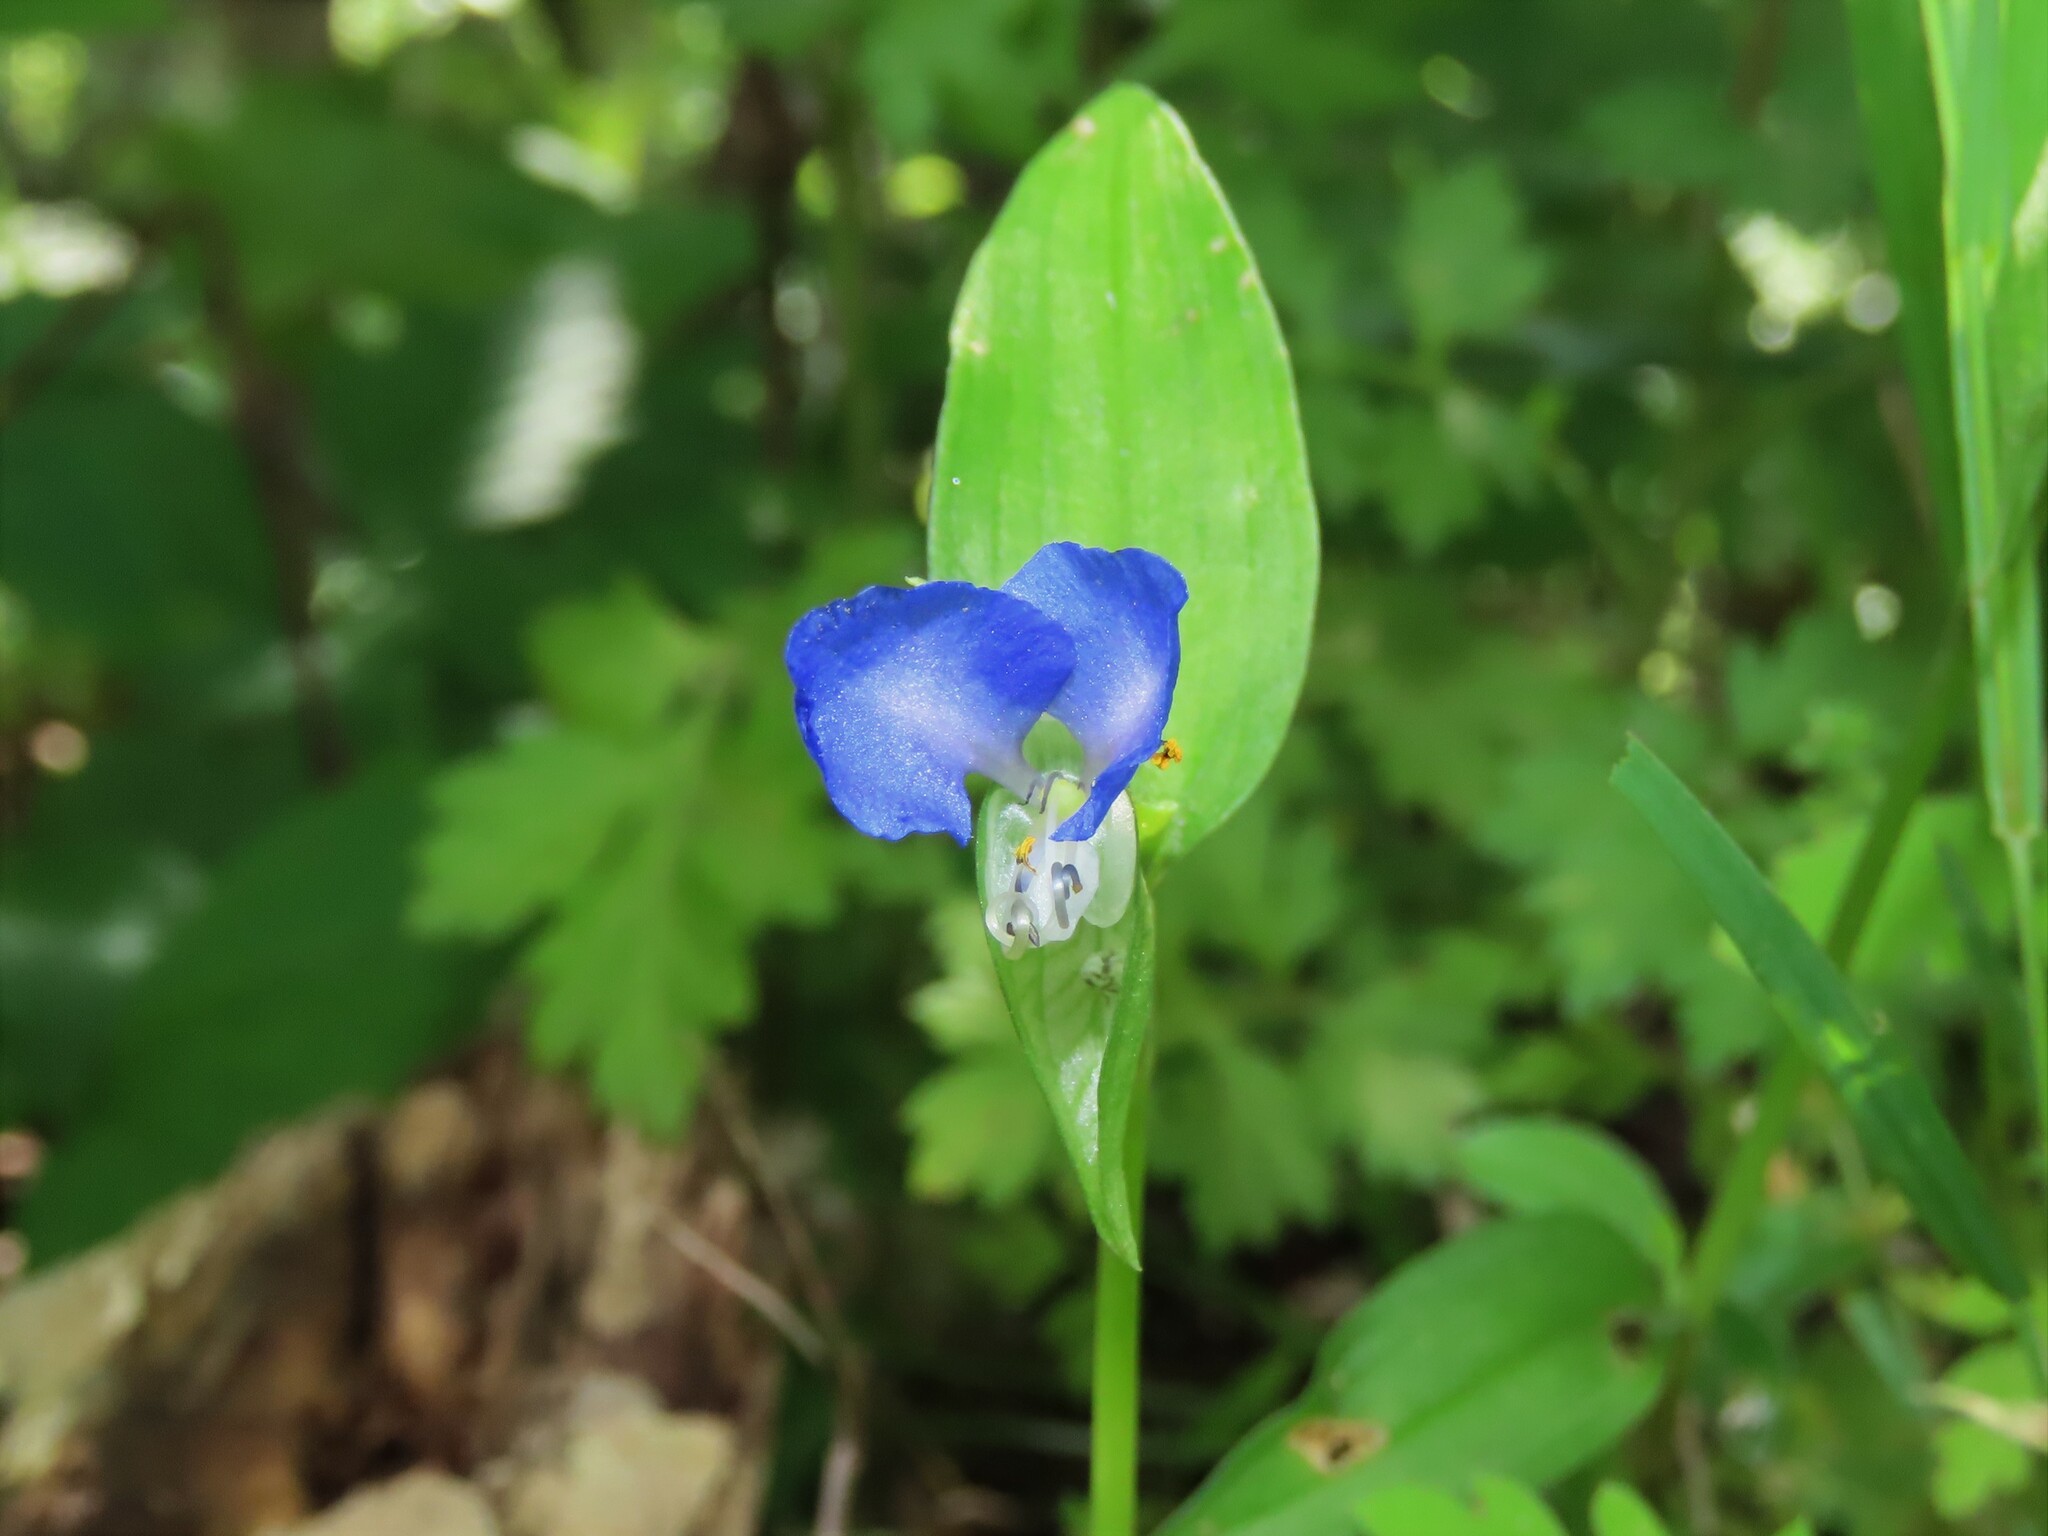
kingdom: Plantae
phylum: Tracheophyta
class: Liliopsida
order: Commelinales
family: Commelinaceae
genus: Commelina
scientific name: Commelina communis
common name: Asiatic dayflower
